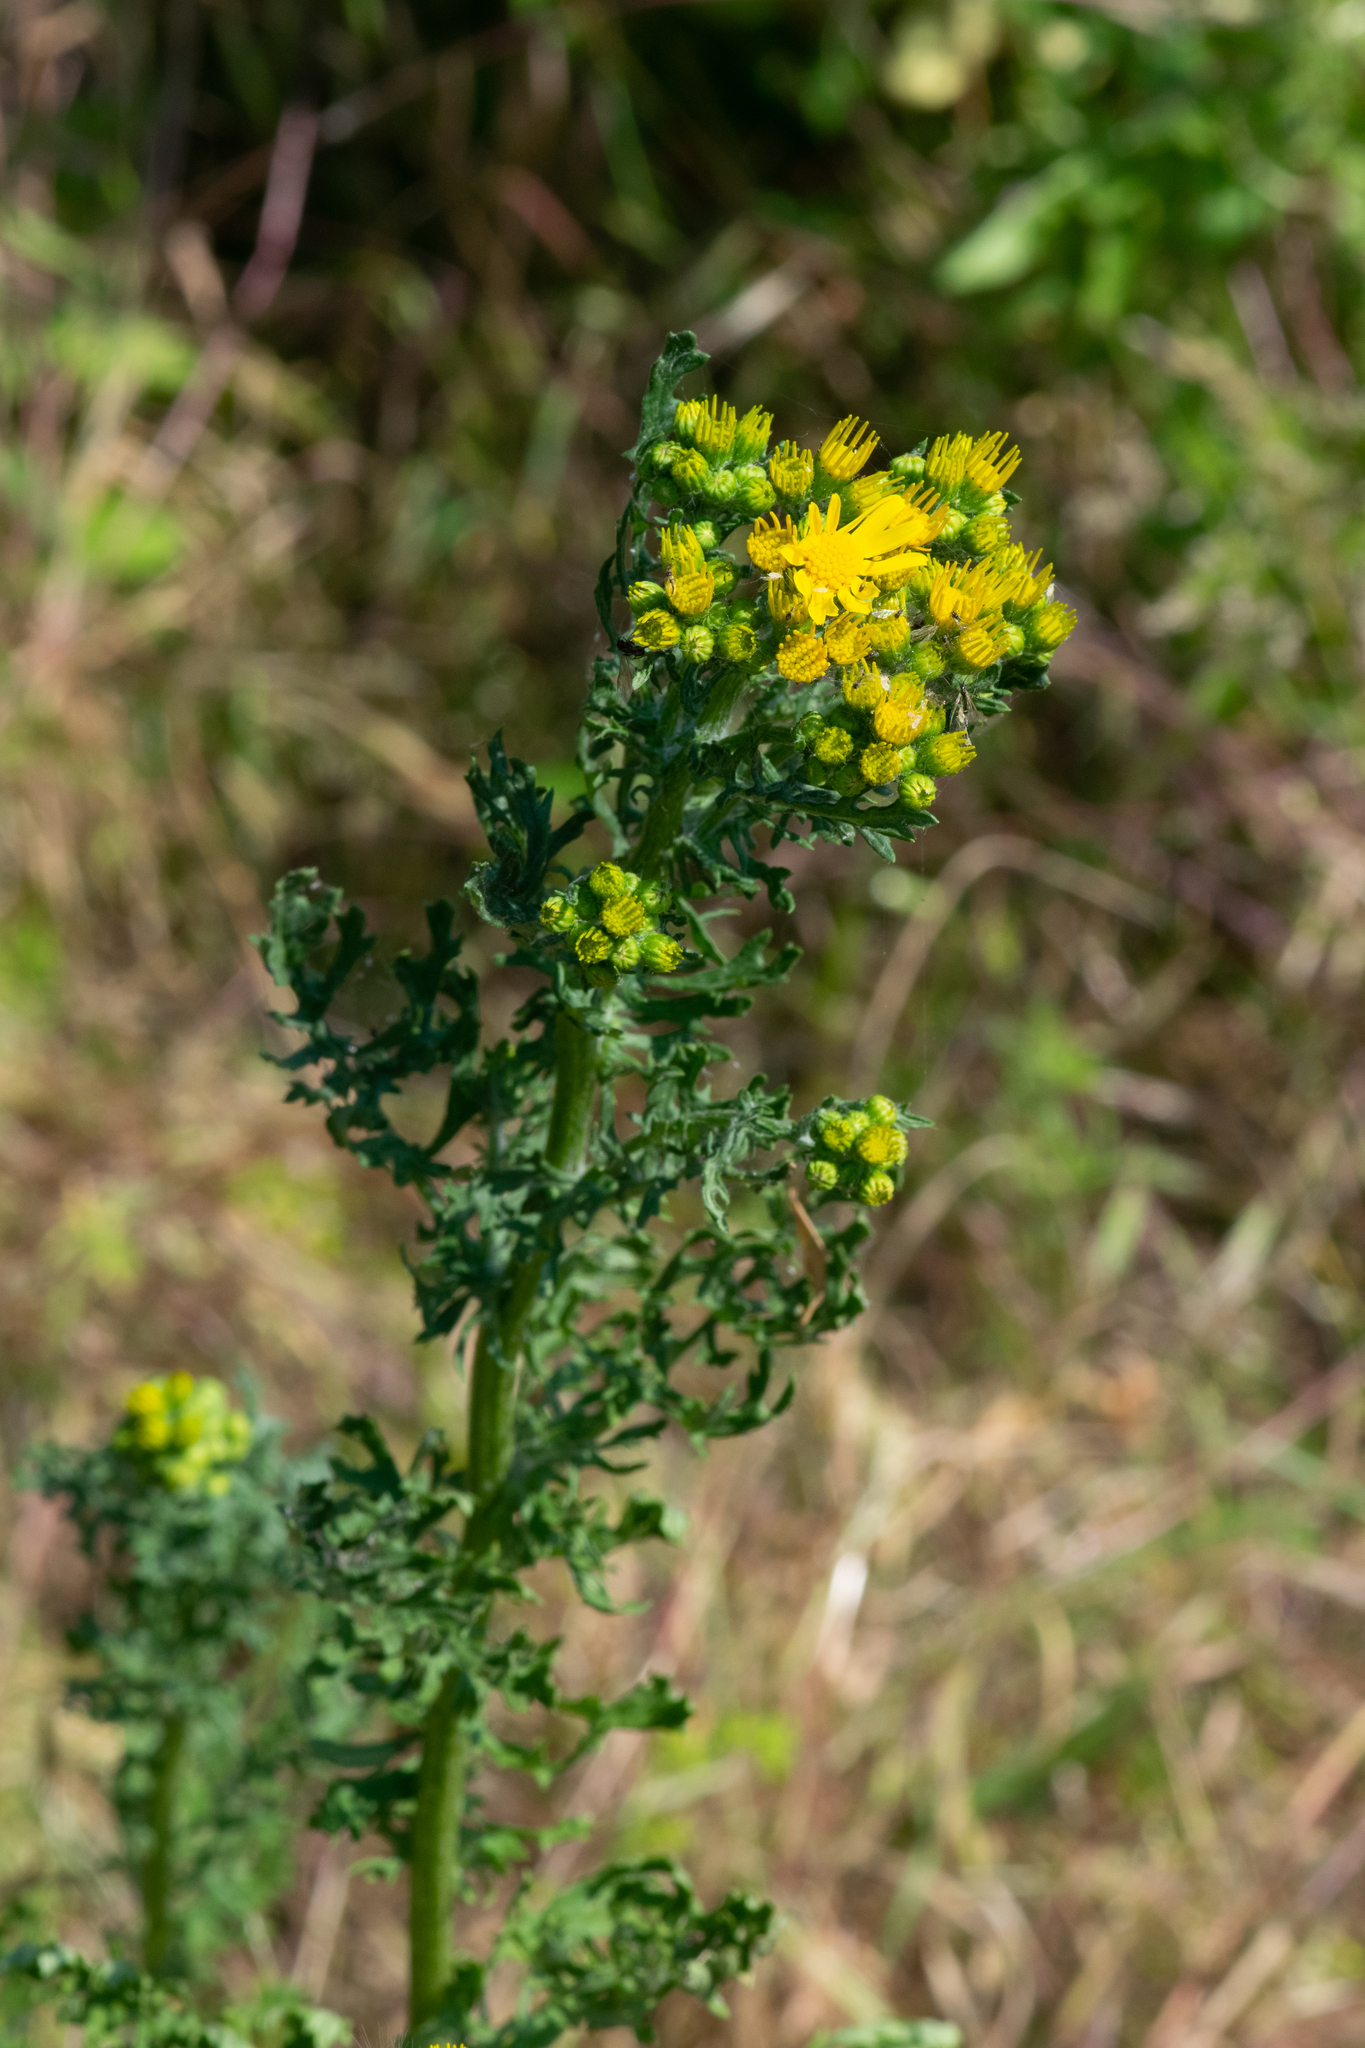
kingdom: Plantae
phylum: Tracheophyta
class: Magnoliopsida
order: Asterales
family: Asteraceae
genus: Jacobaea
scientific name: Jacobaea vulgaris
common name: Stinking willie
